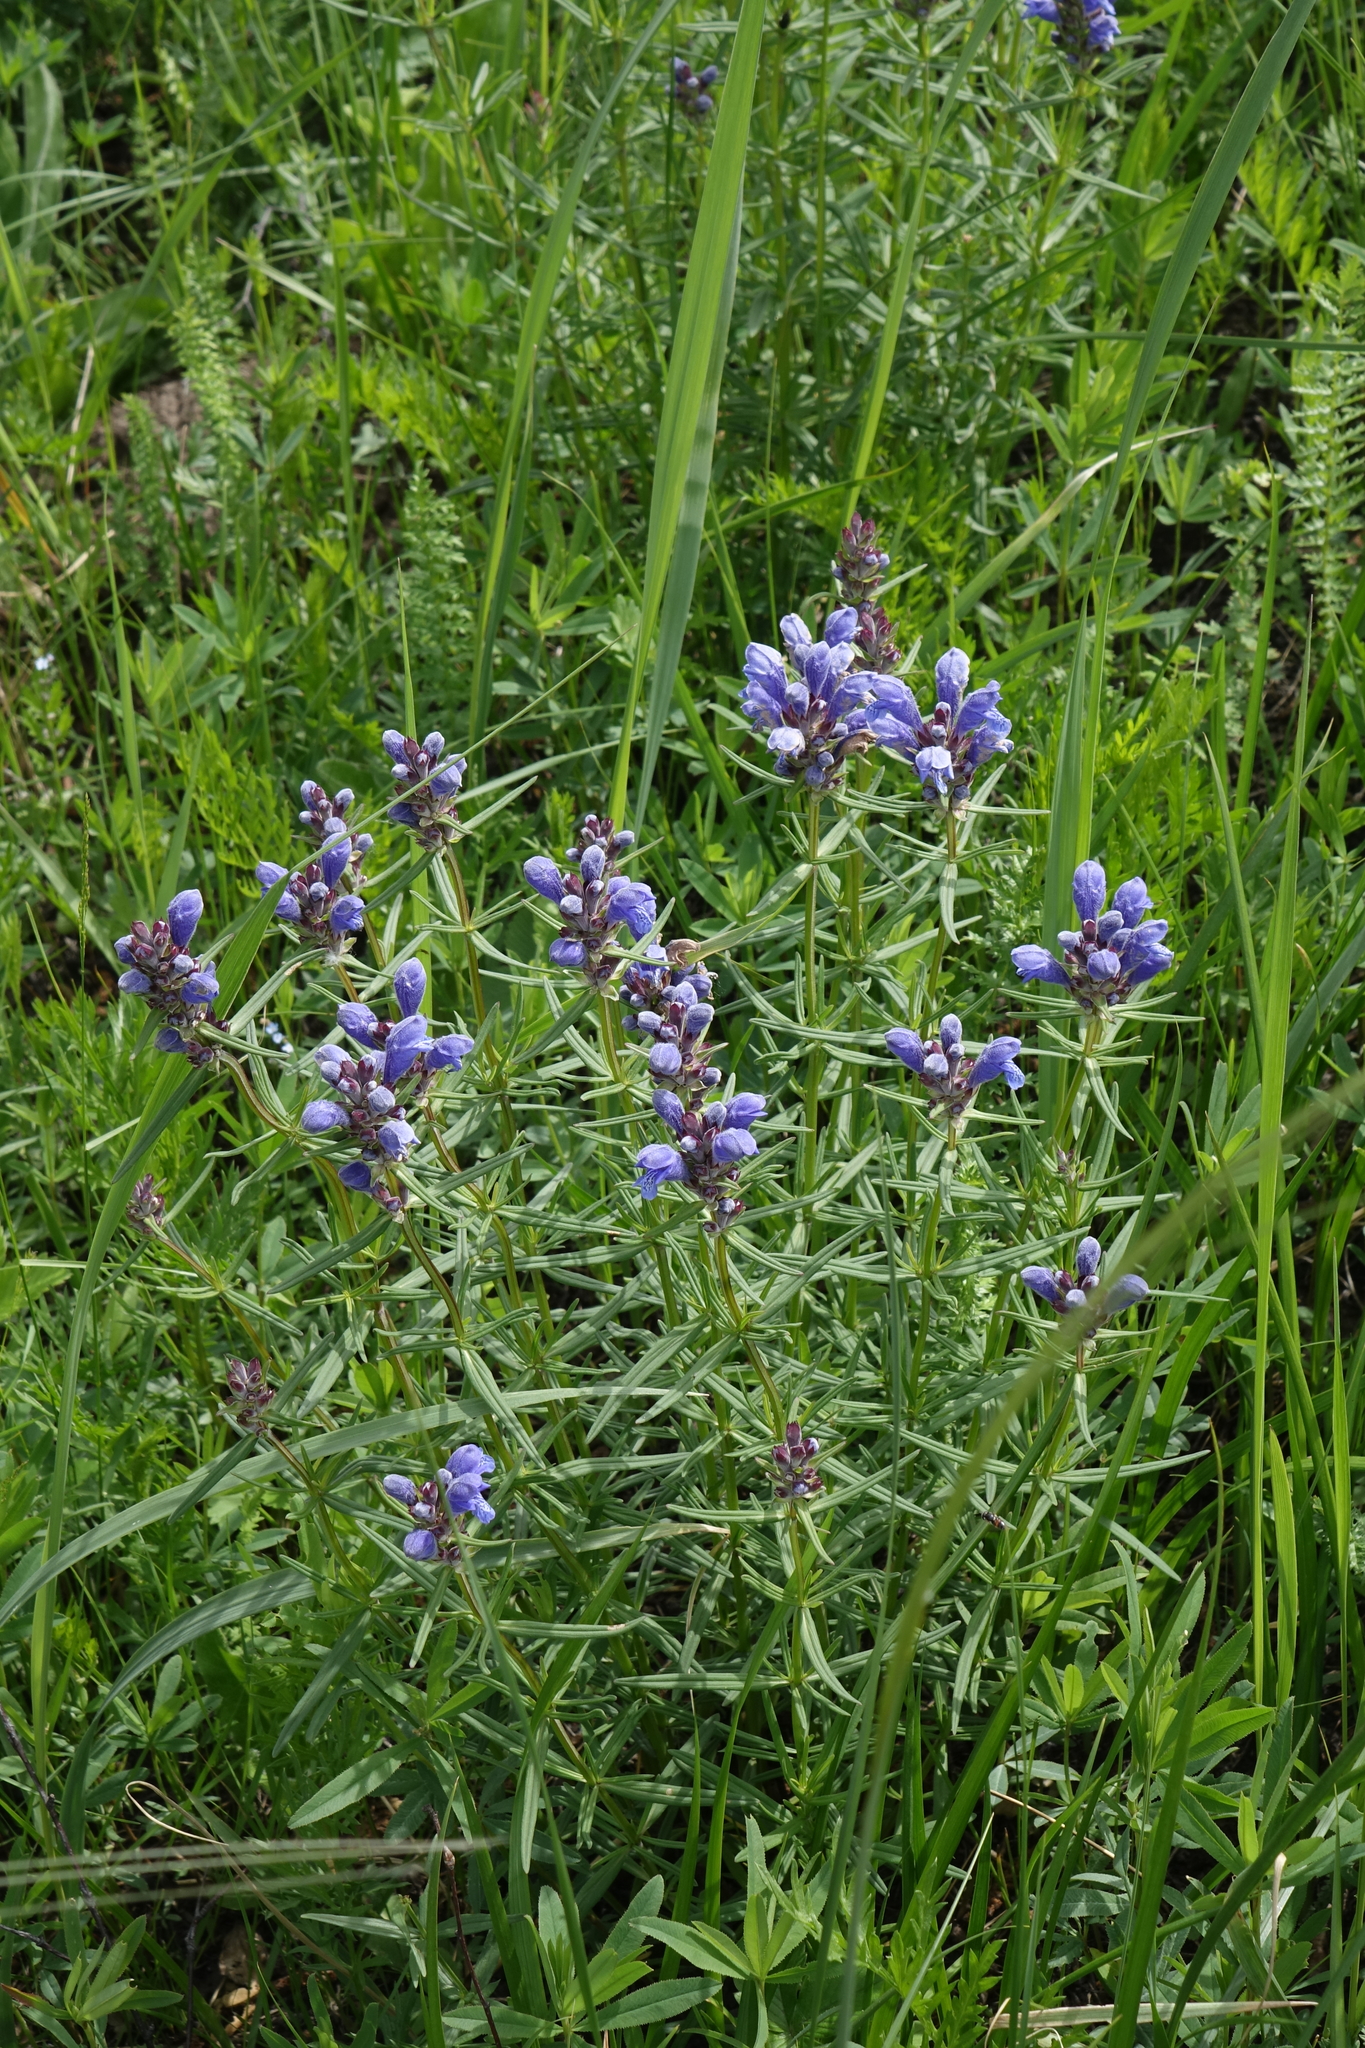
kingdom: Plantae
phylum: Tracheophyta
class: Magnoliopsida
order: Lamiales
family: Lamiaceae
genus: Dracocephalum
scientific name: Dracocephalum ruyschiana
